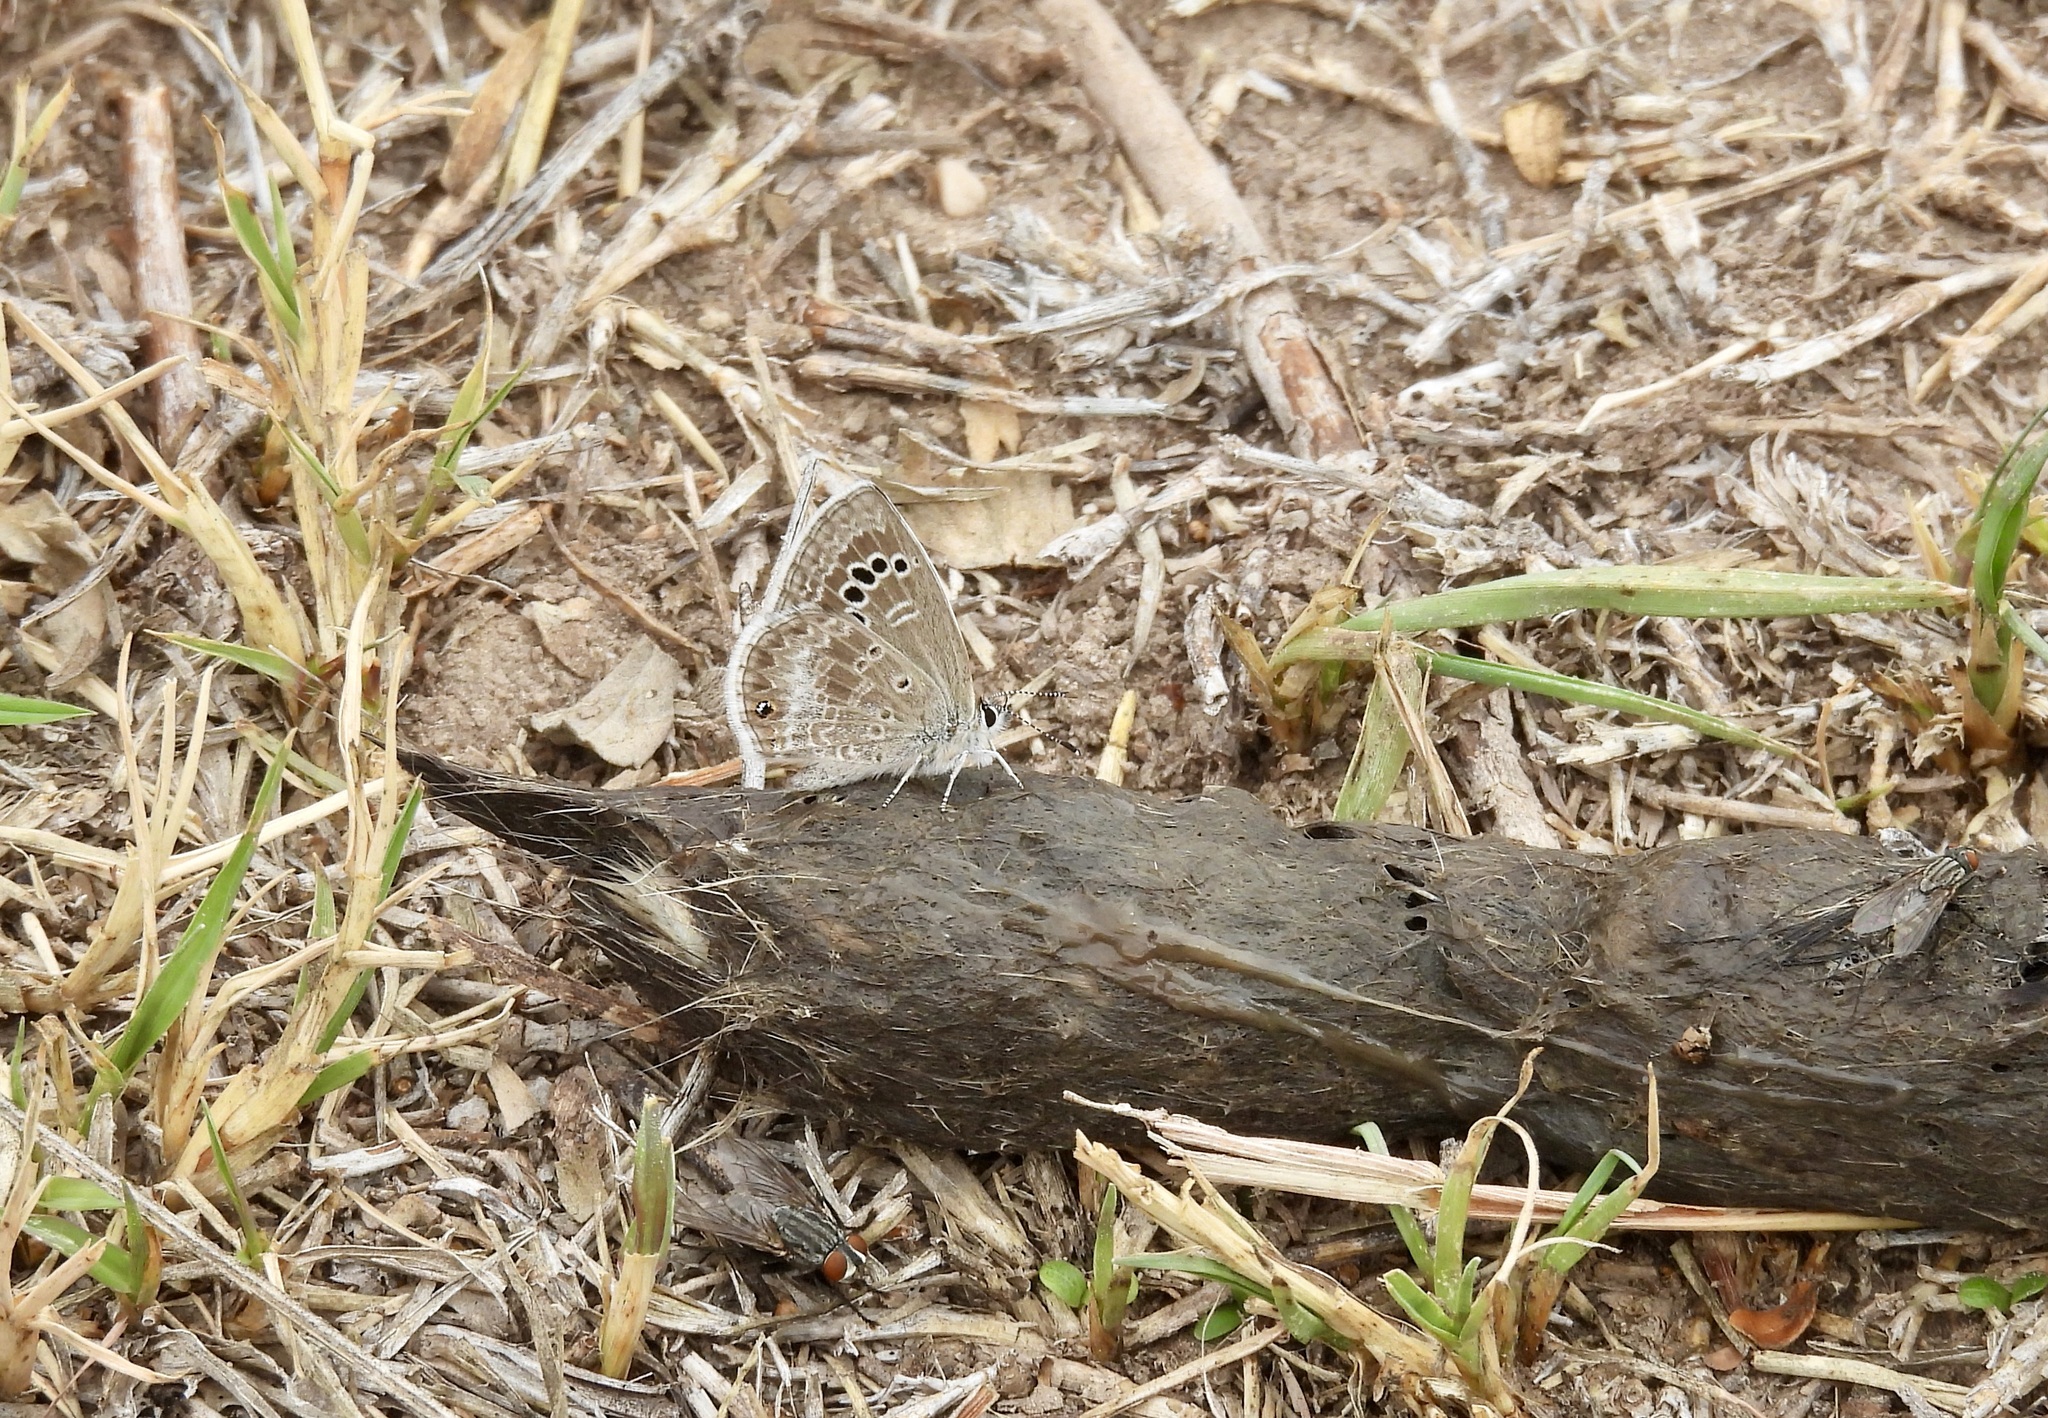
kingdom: Animalia
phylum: Arthropoda
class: Insecta
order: Lepidoptera
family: Lycaenidae
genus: Echinargus
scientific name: Echinargus isola
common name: Reakirt's blue
